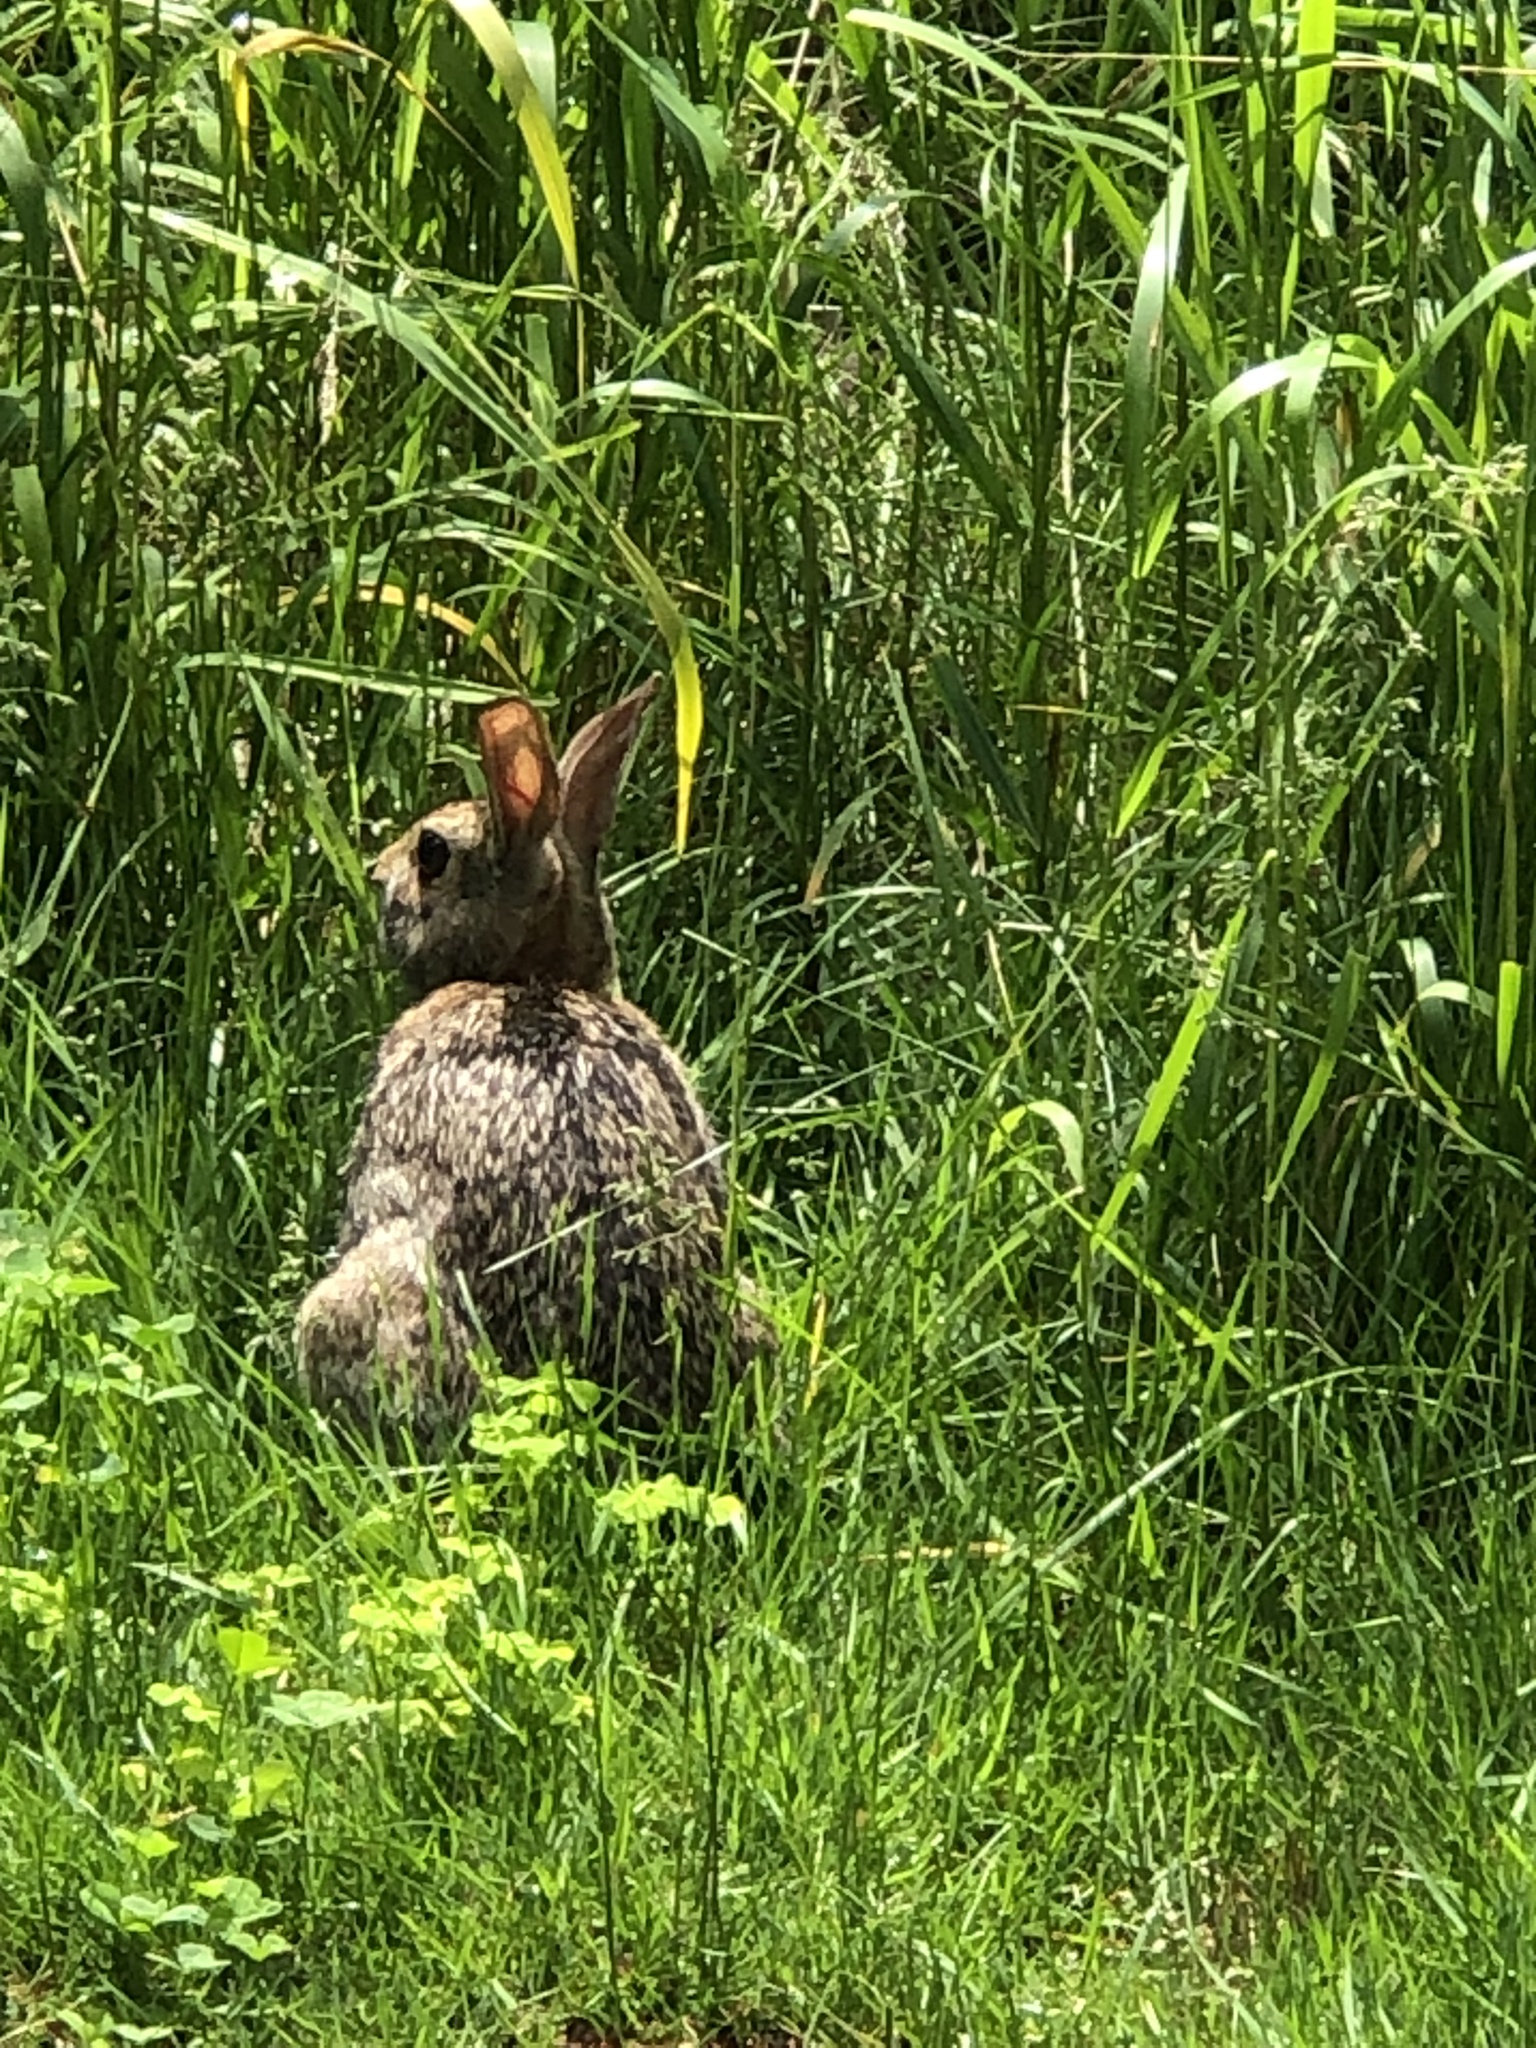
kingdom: Animalia
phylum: Chordata
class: Mammalia
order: Lagomorpha
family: Leporidae
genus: Sylvilagus
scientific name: Sylvilagus floridanus
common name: Eastern cottontail
